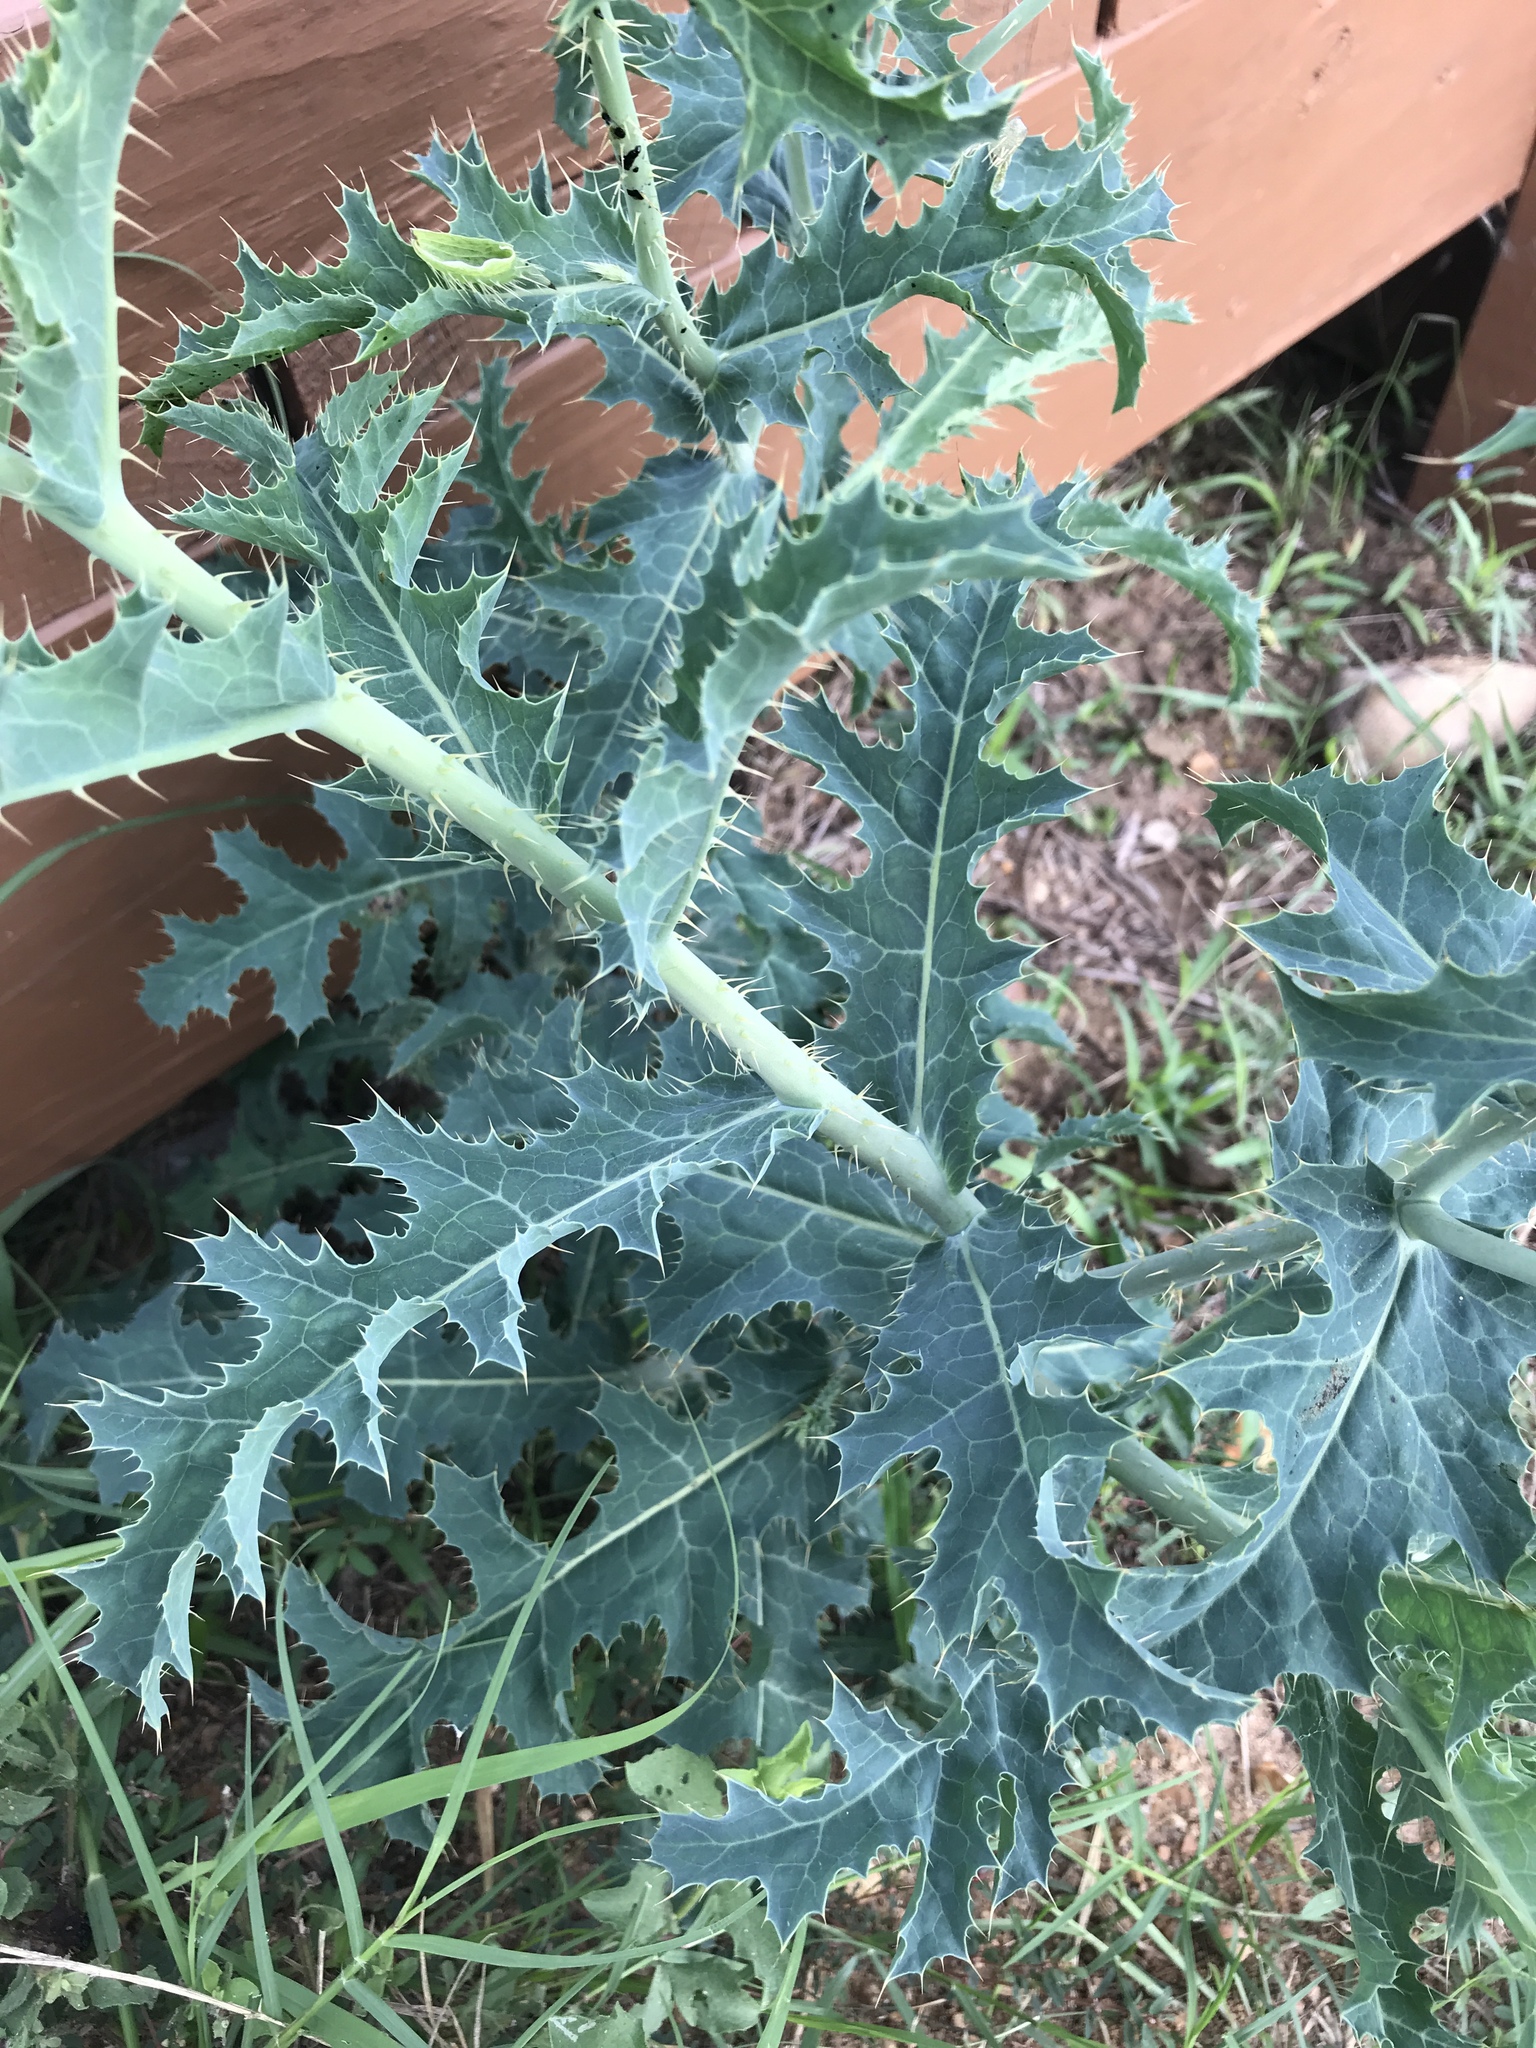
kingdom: Plantae
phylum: Tracheophyta
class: Magnoliopsida
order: Ranunculales
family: Papaveraceae
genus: Argemone
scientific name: Argemone albiflora
